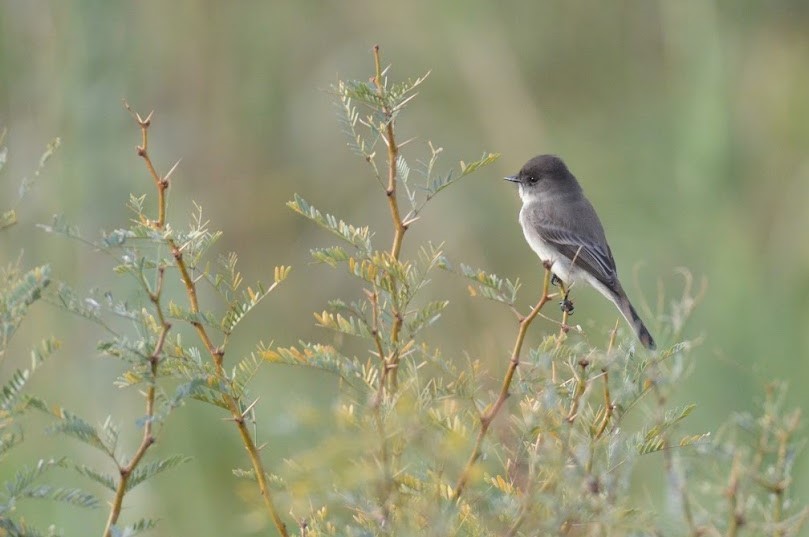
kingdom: Animalia
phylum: Chordata
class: Aves
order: Passeriformes
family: Tyrannidae
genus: Sayornis
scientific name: Sayornis phoebe
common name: Eastern phoebe
